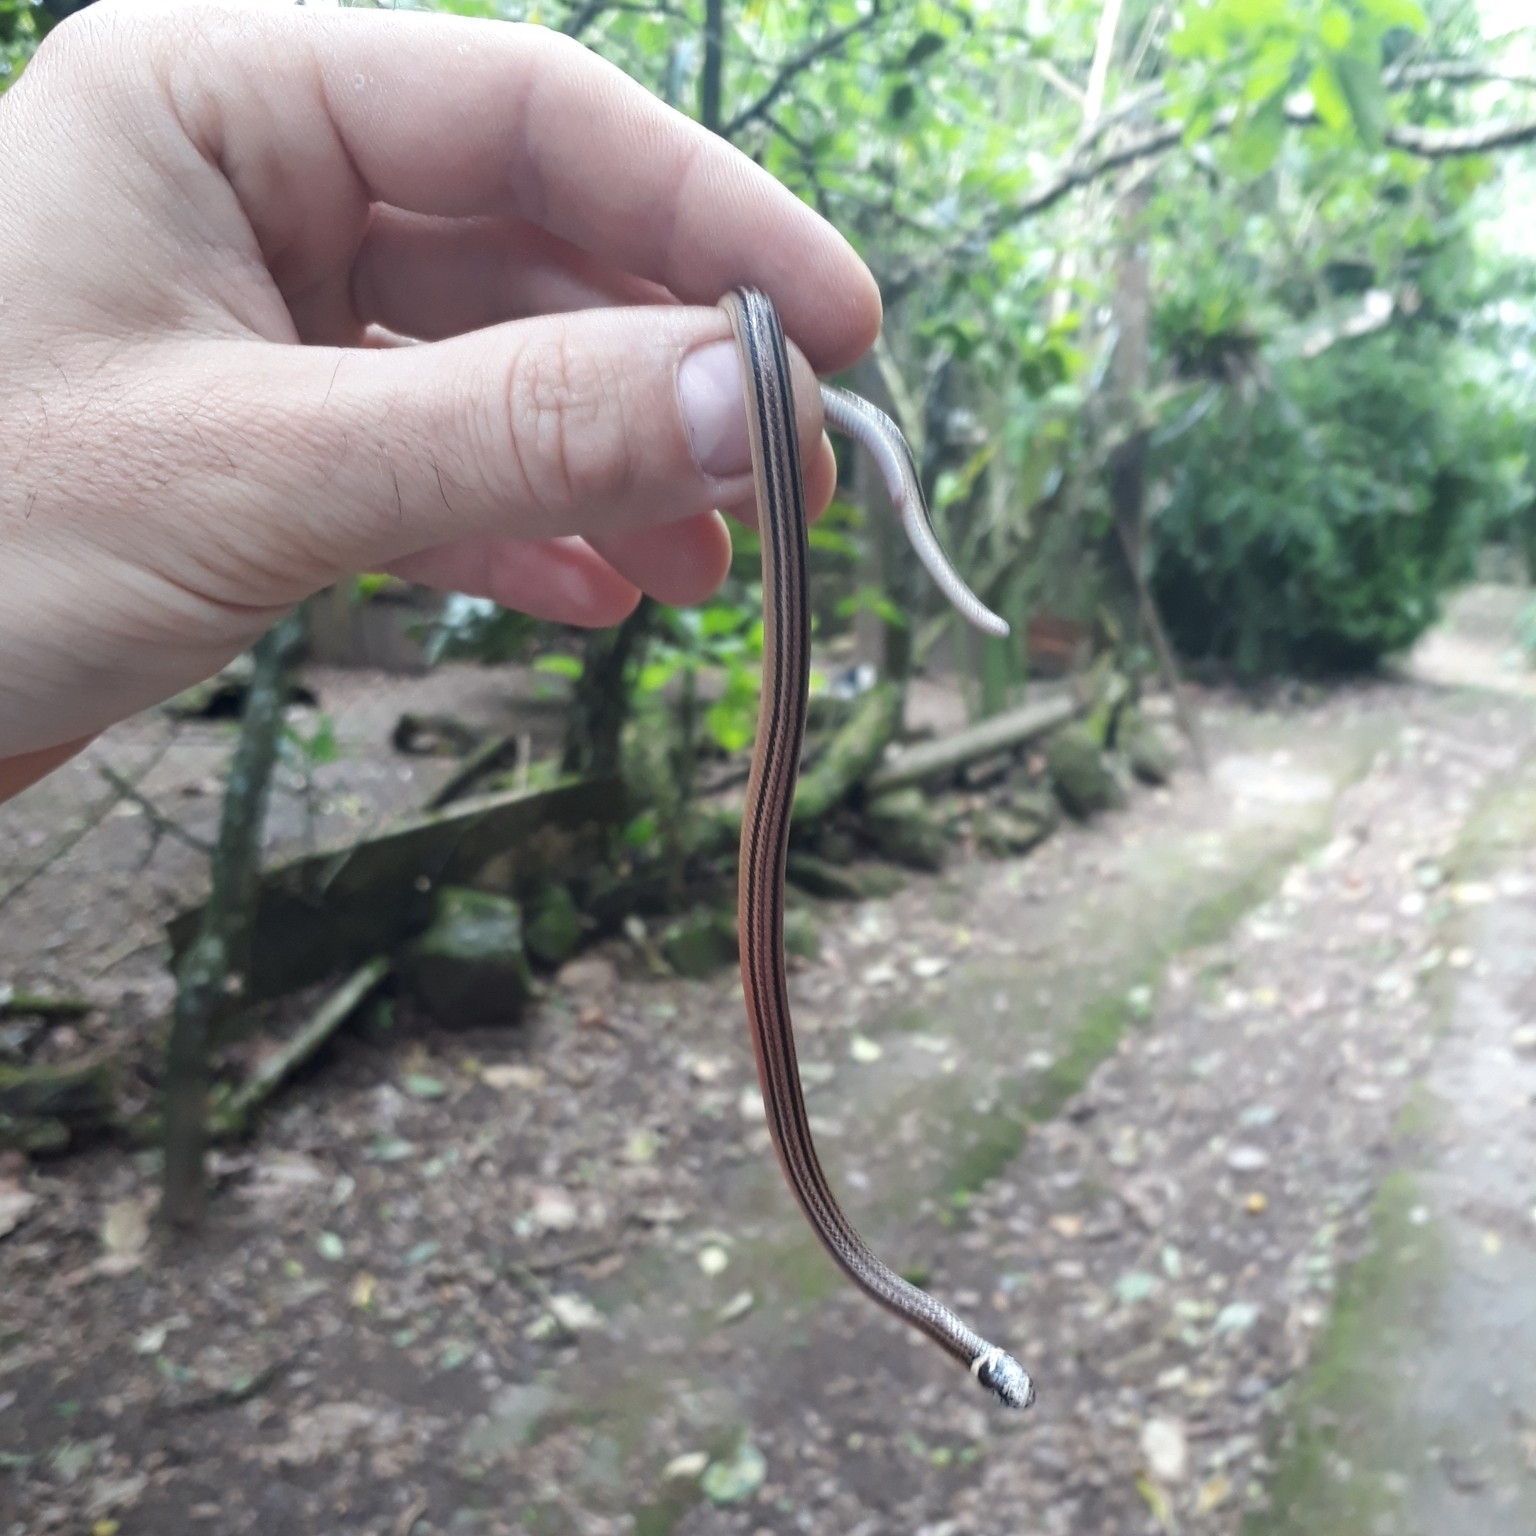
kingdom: Animalia
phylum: Chordata
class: Squamata
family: Colubridae
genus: Elapomorphus
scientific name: Elapomorphus quinquelineatus
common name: Raddi's lizard-eating snake
